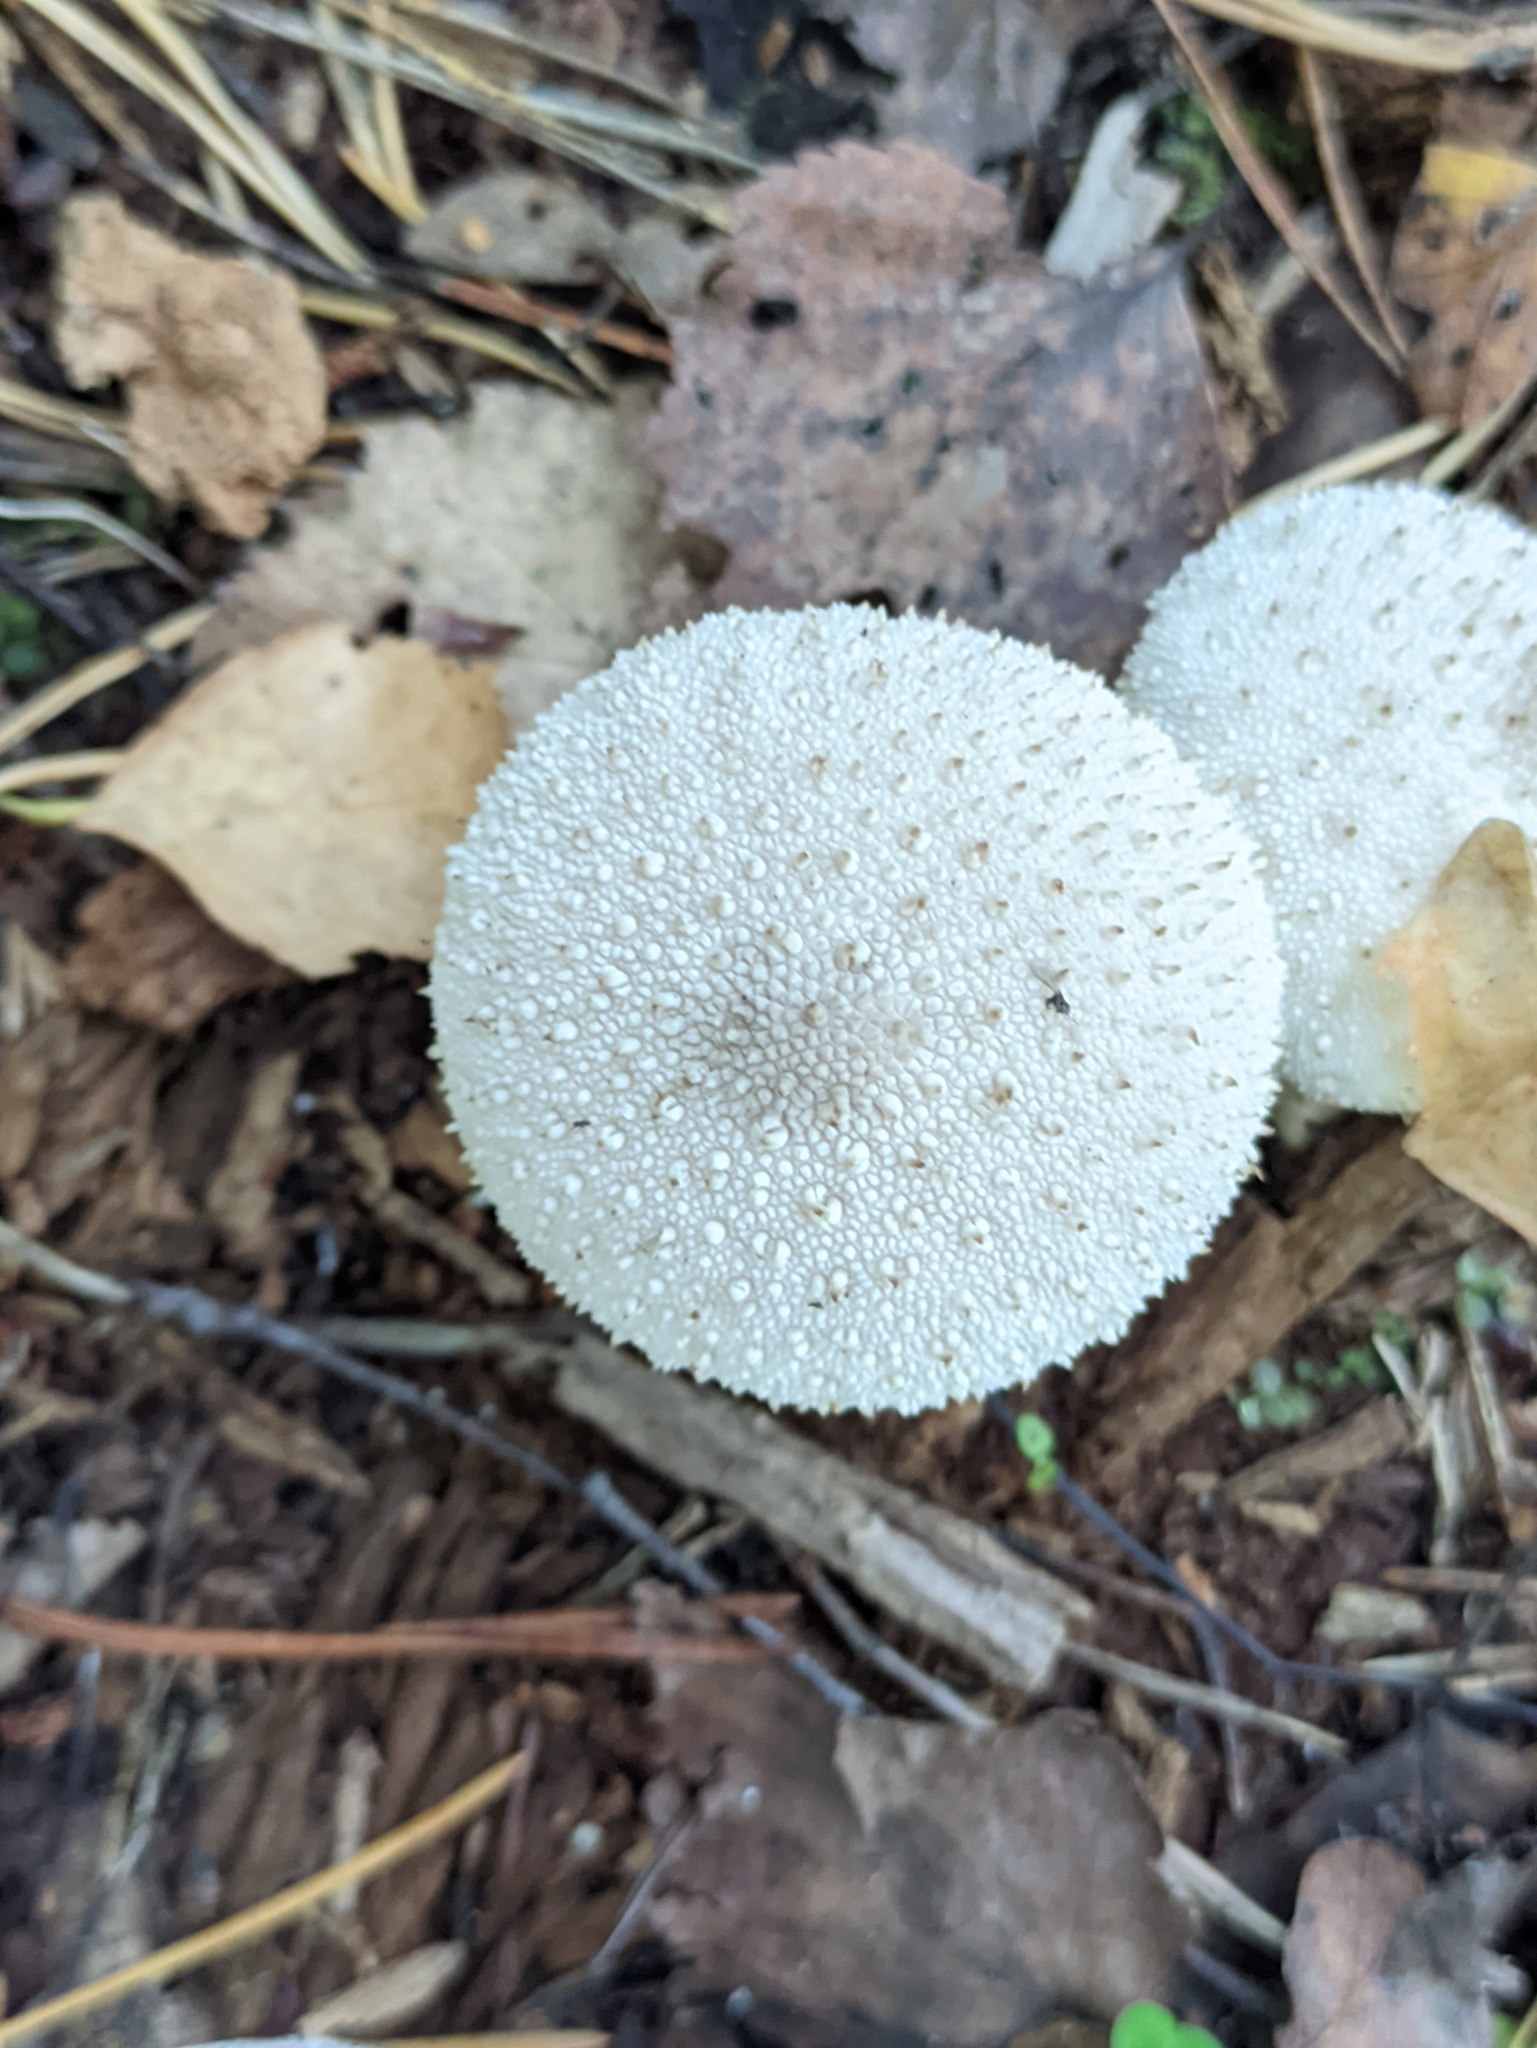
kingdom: Fungi
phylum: Basidiomycota
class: Agaricomycetes
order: Agaricales
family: Lycoperdaceae
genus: Lycoperdon
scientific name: Lycoperdon perlatum
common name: Common puffball
